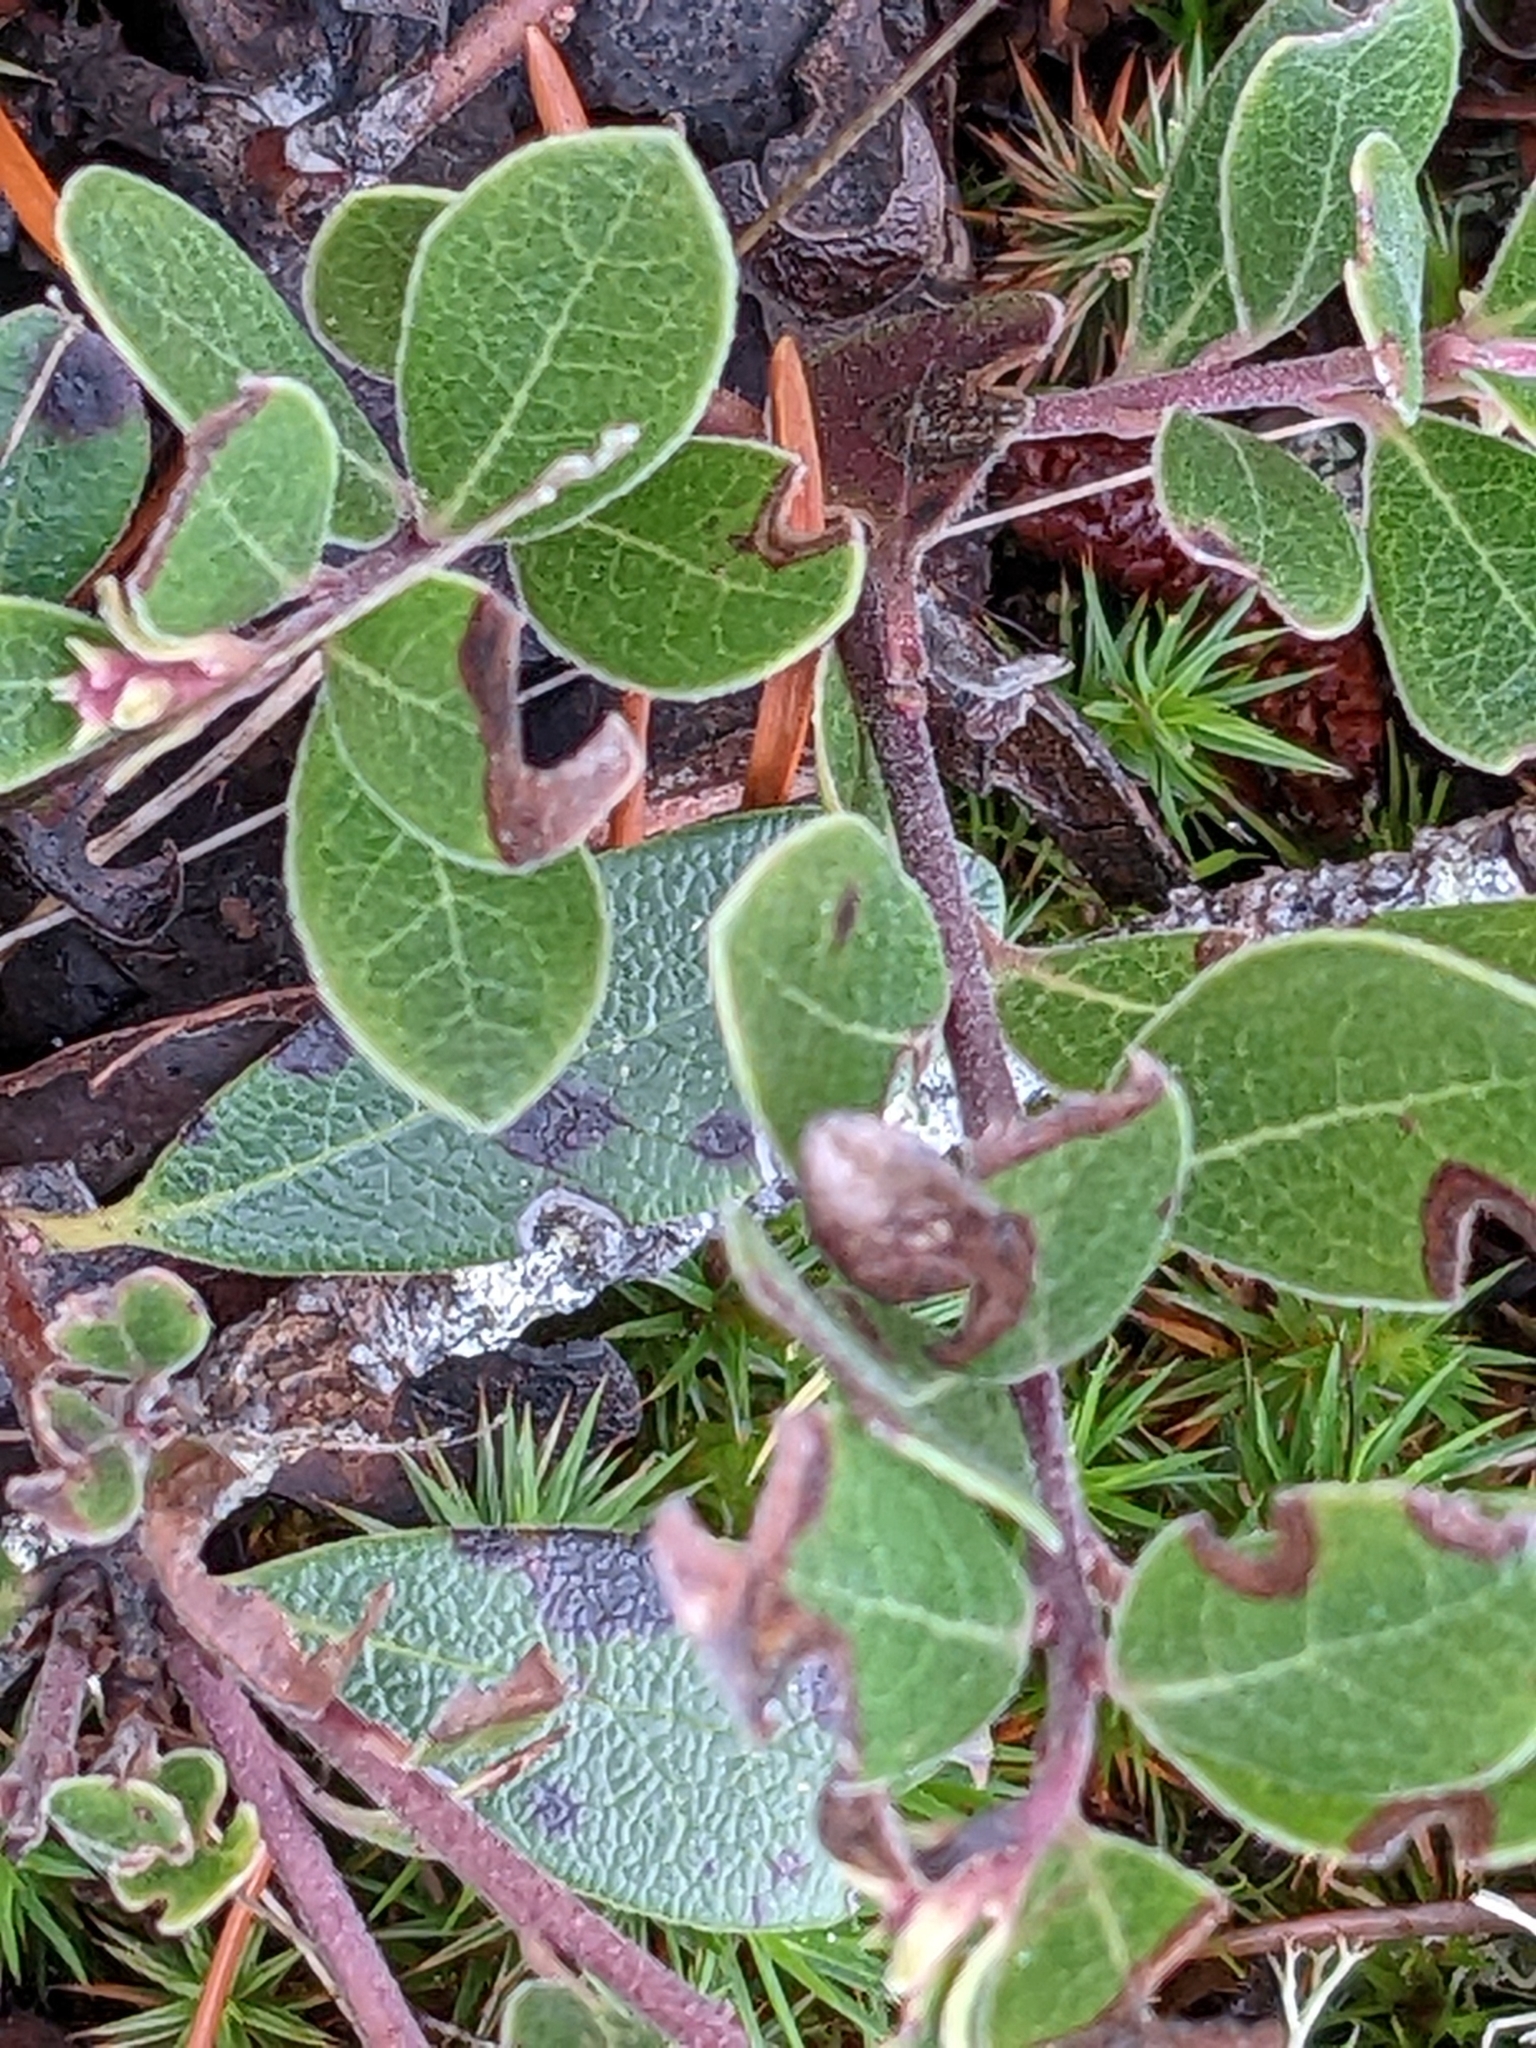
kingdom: Plantae
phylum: Tracheophyta
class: Magnoliopsida
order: Ericales
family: Ericaceae
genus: Arctostaphylos
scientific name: Arctostaphylos uva-ursi
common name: Bearberry
